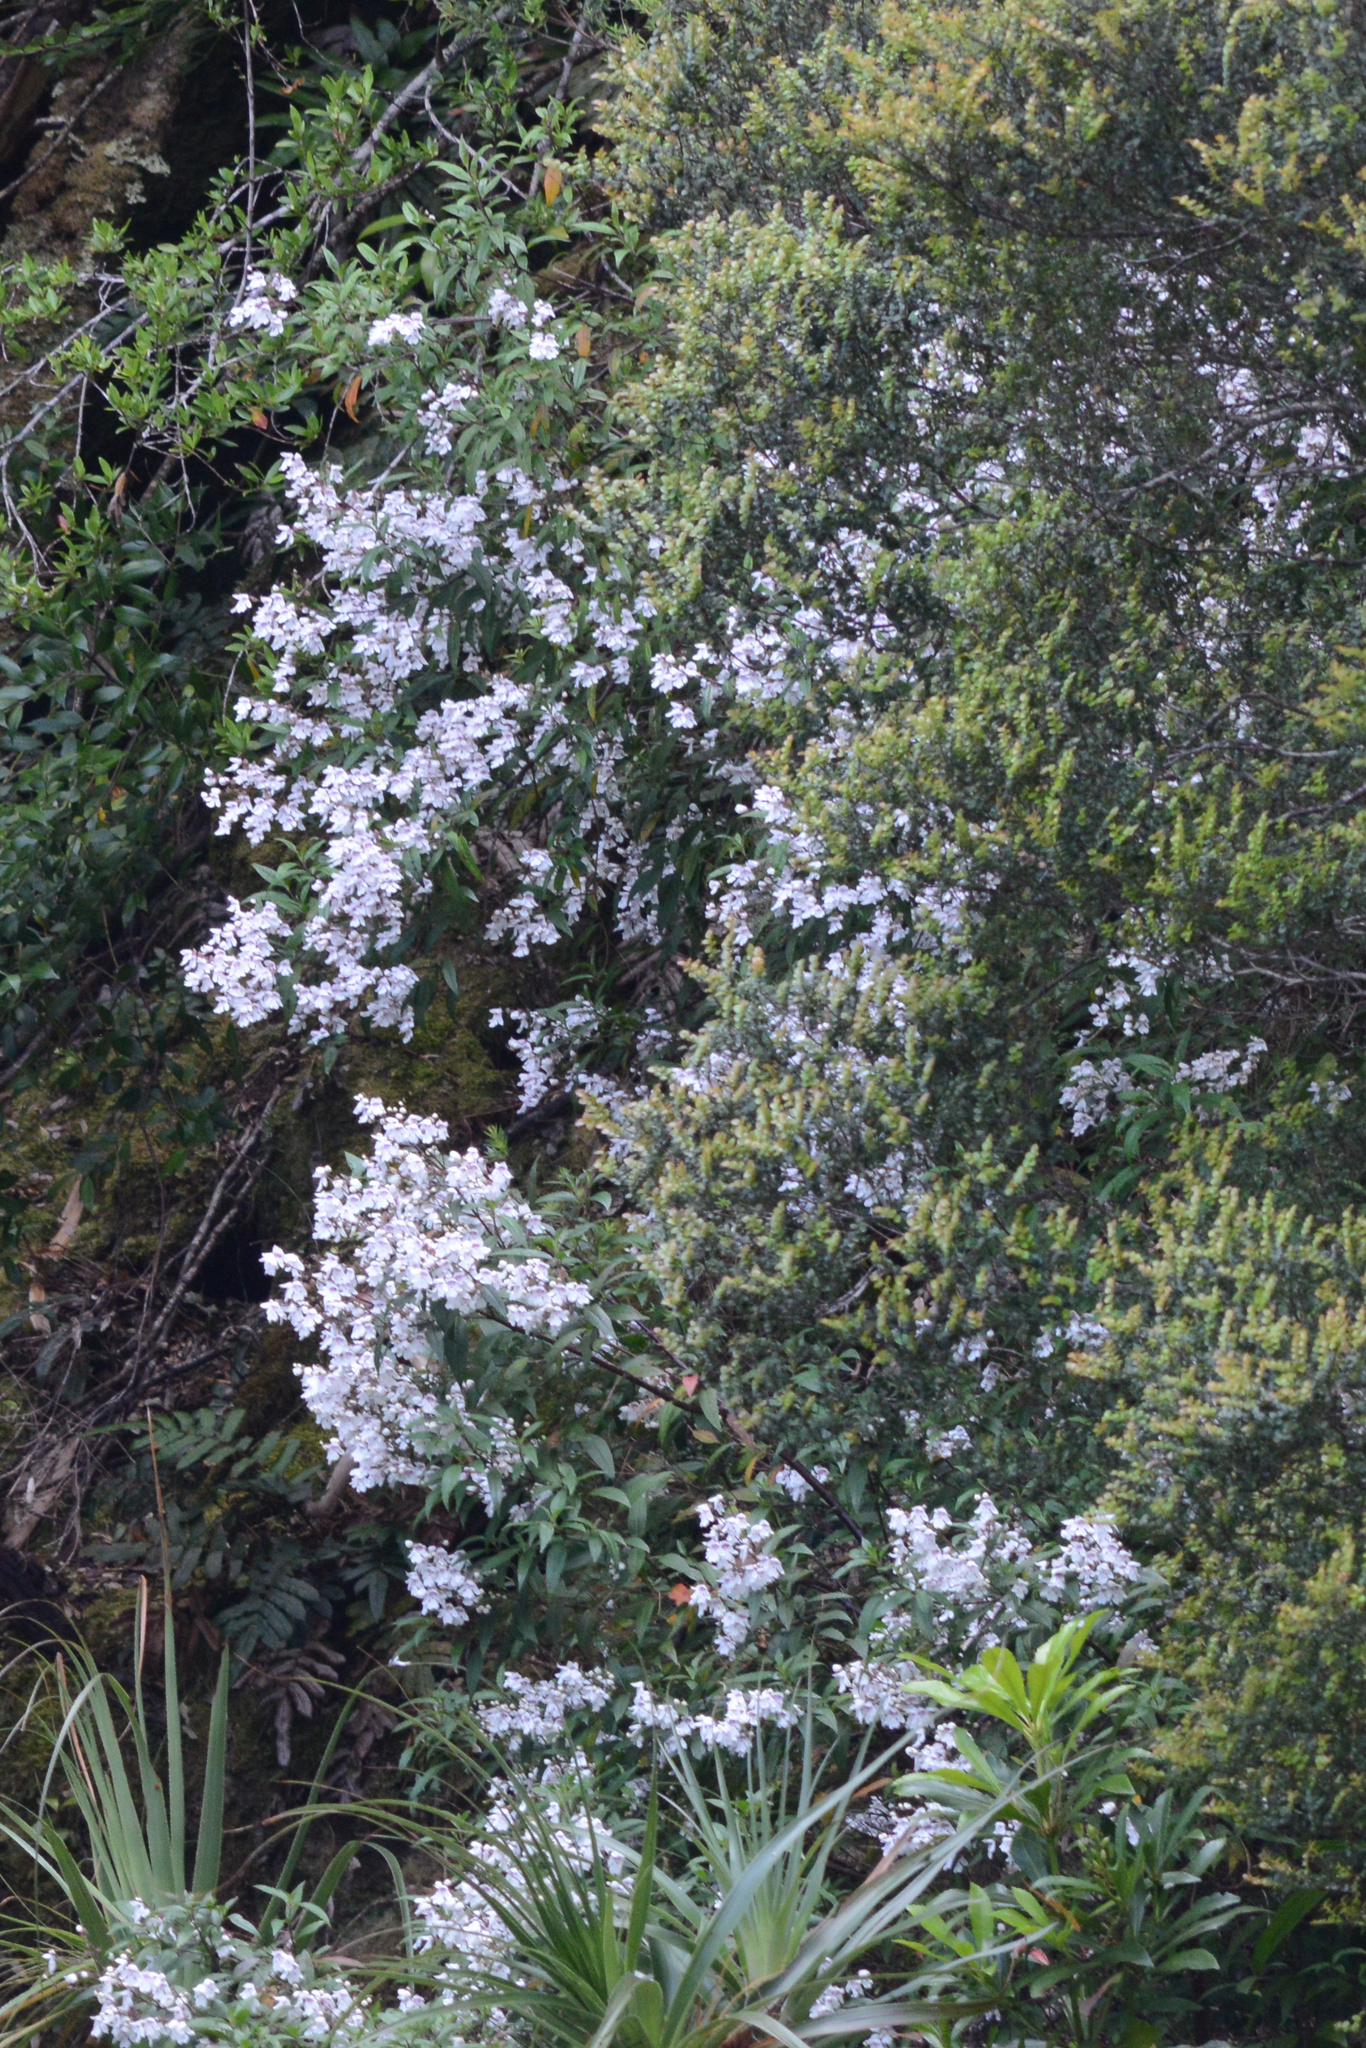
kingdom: Plantae
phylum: Tracheophyta
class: Magnoliopsida
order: Lamiales
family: Lamiaceae
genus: Prostanthera
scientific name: Prostanthera lasianthos
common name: Mountain-lilac
